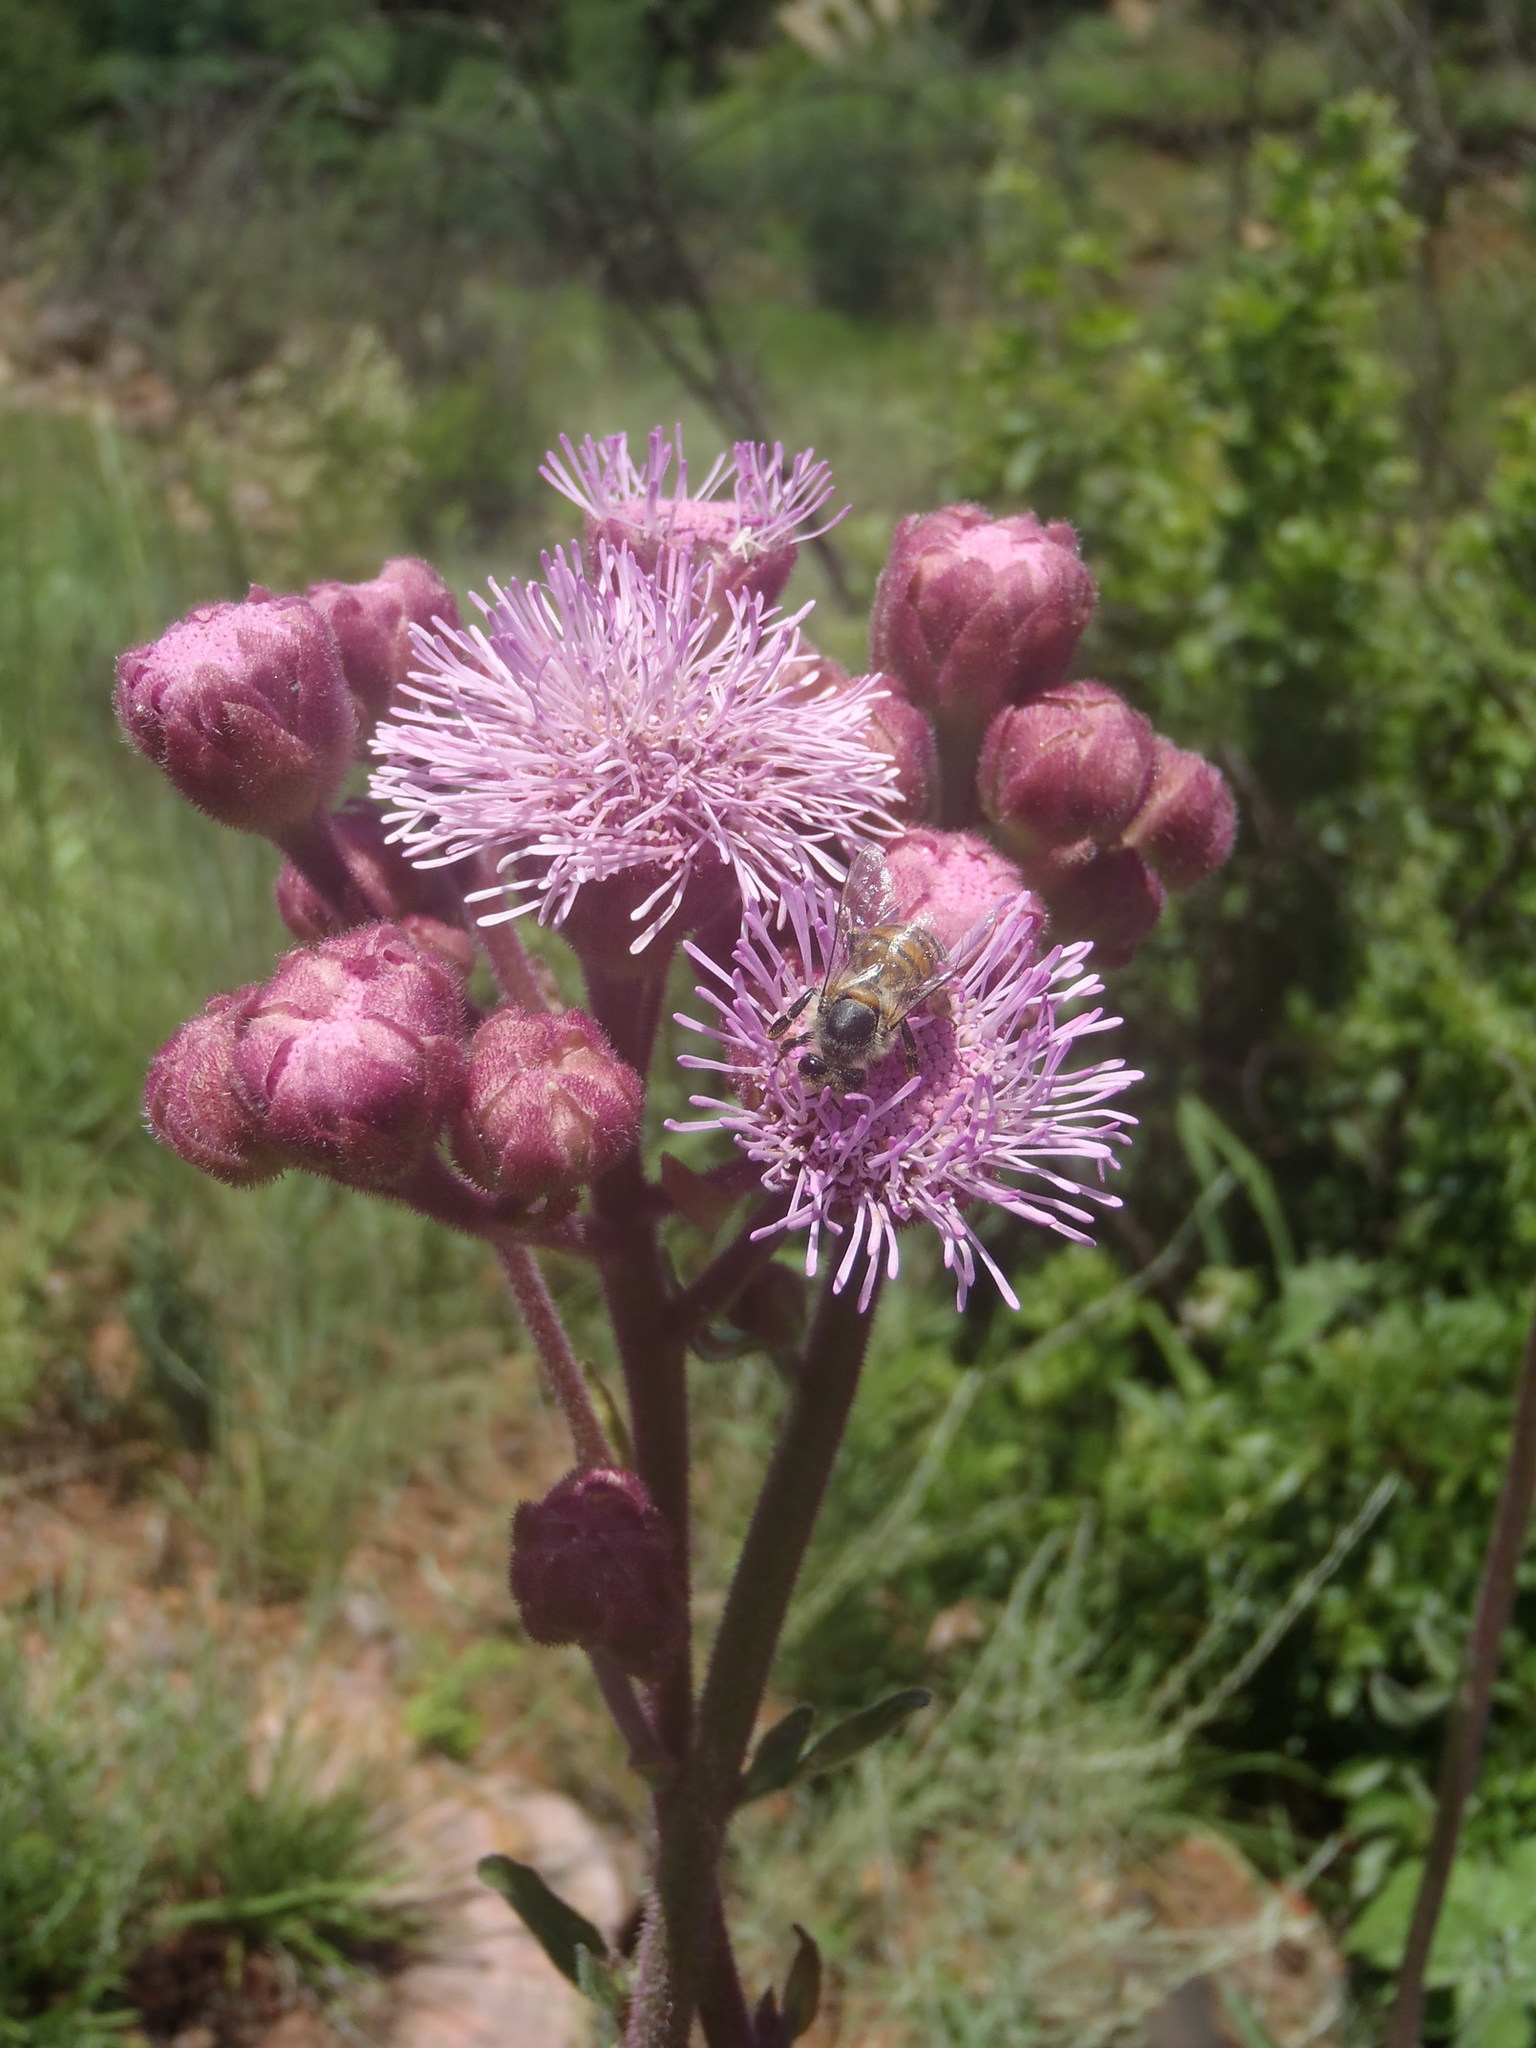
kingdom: Plantae
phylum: Tracheophyta
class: Magnoliopsida
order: Asterales
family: Asteraceae
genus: Campuloclinium
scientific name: Campuloclinium macrocephalum
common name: Pompomweed
